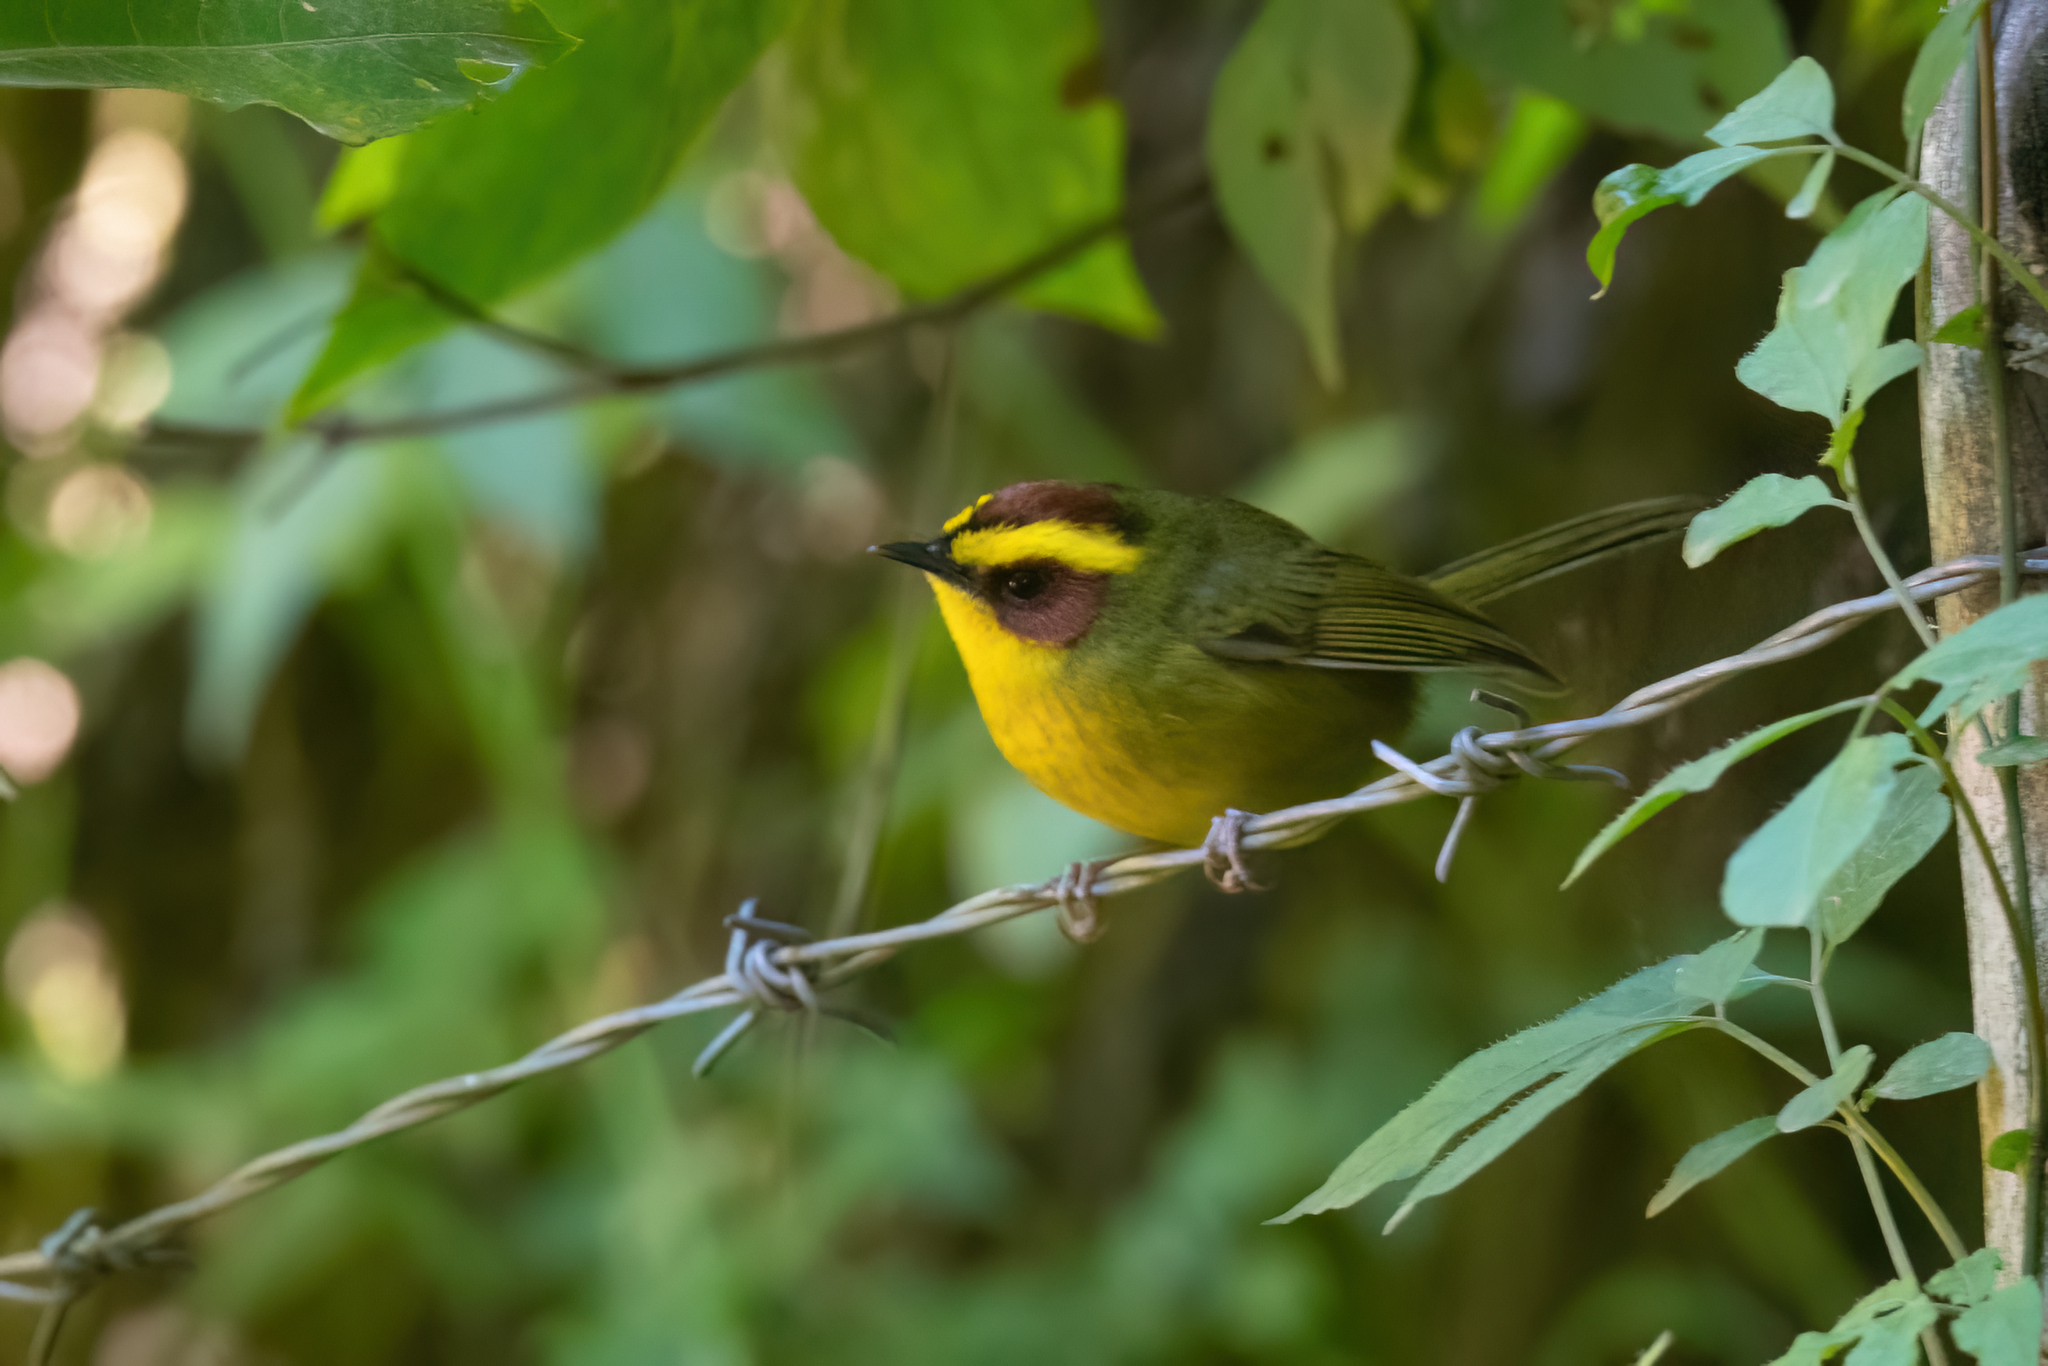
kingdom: Animalia
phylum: Chordata
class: Aves
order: Passeriformes
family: Parulidae
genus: Basileuterus
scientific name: Basileuterus belli
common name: Golden-browed warbler
